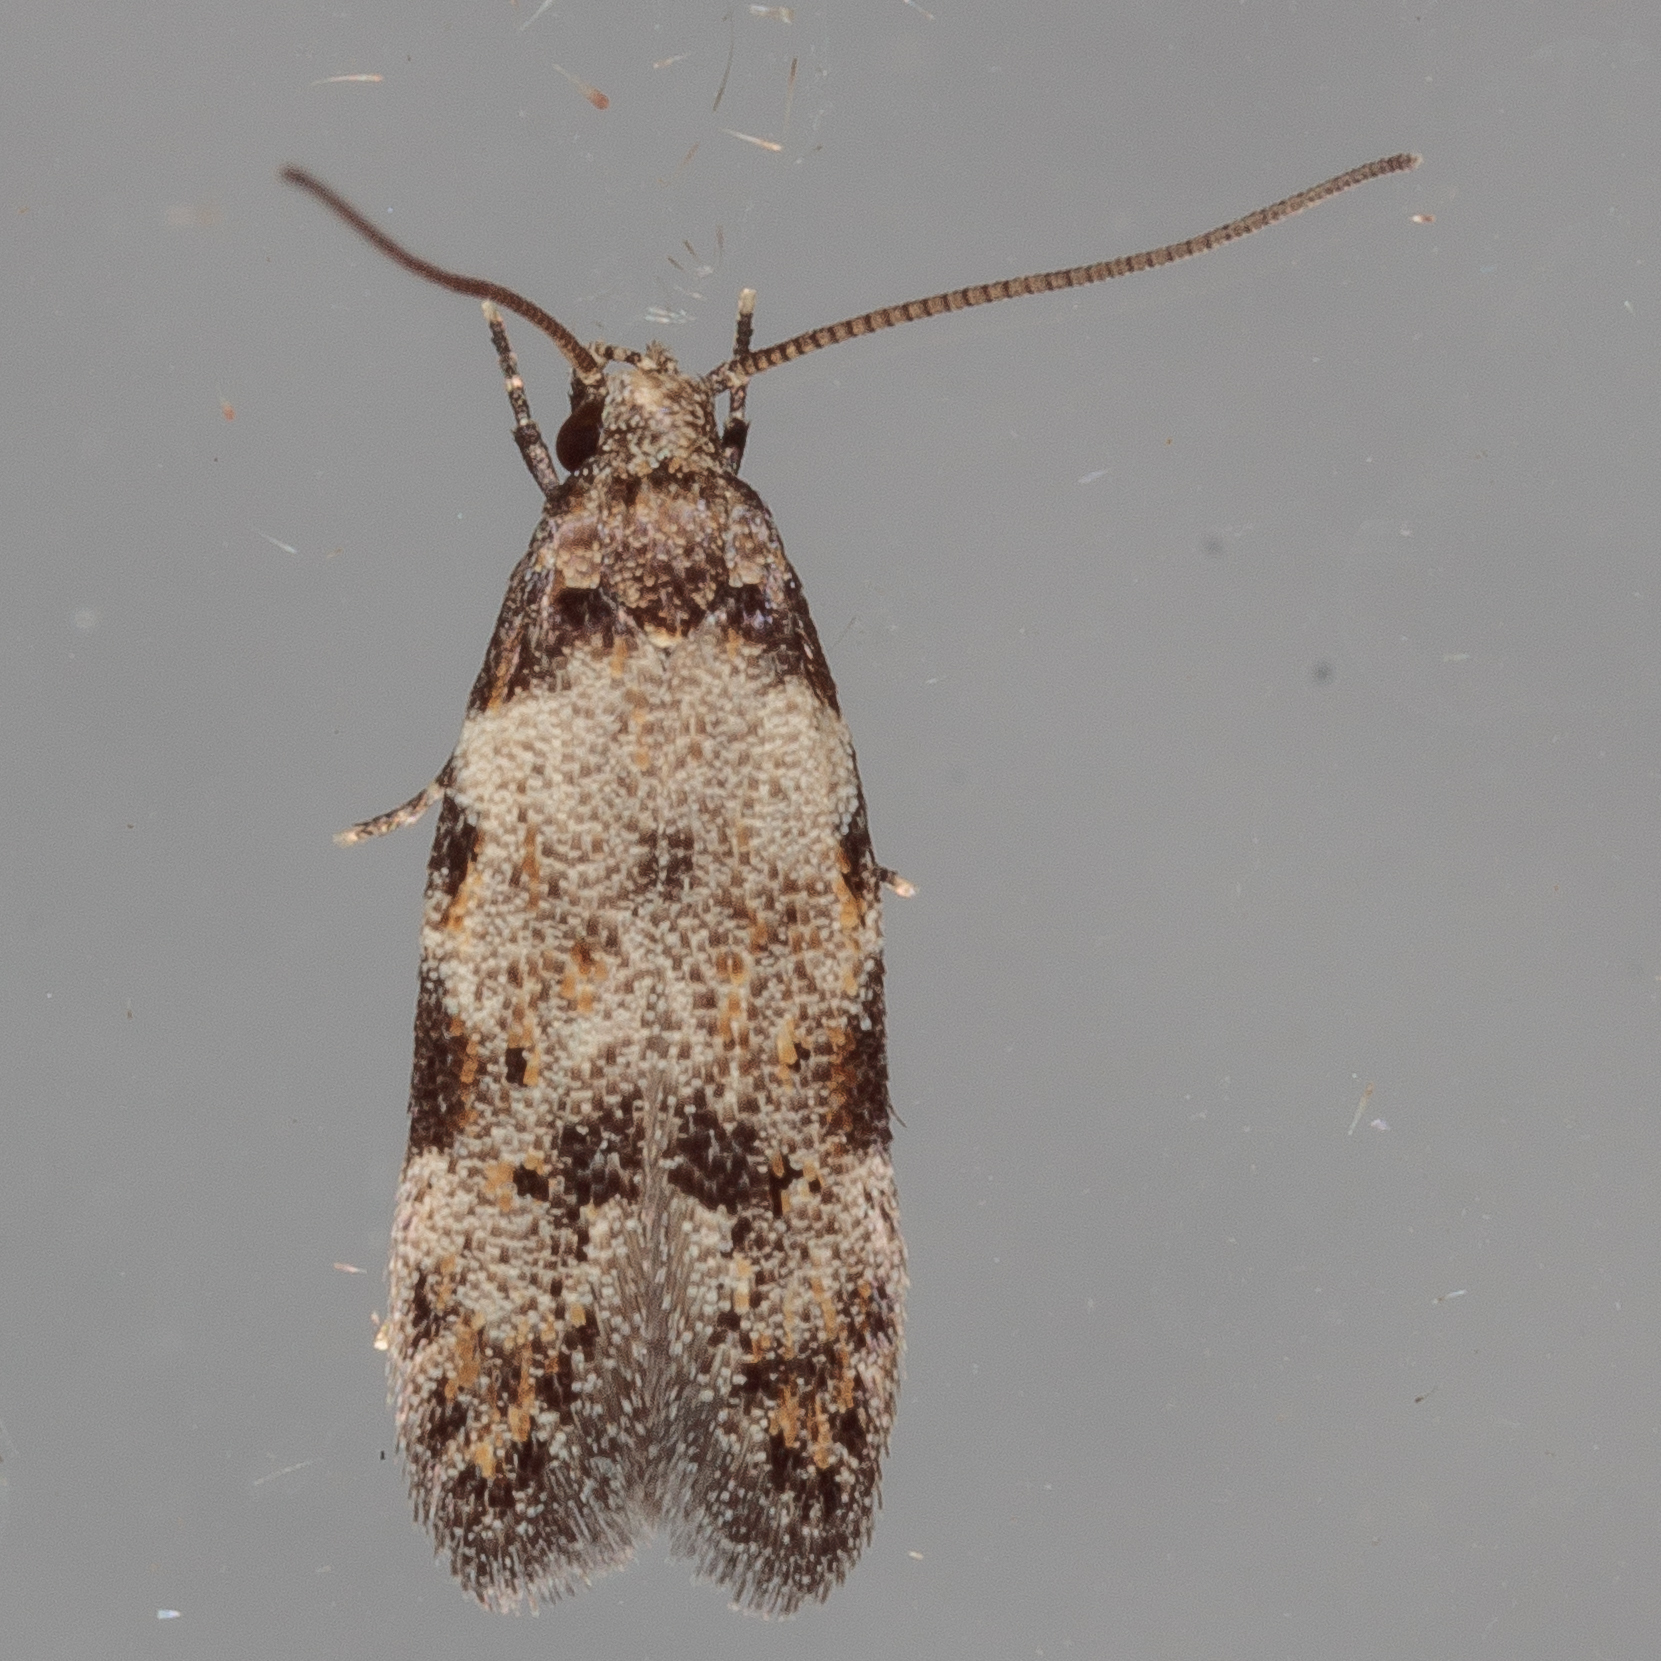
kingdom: Animalia
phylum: Arthropoda
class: Insecta
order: Lepidoptera
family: Autostichidae
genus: Taygete
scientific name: Taygete attributella
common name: Triangle-marked twirler moth
